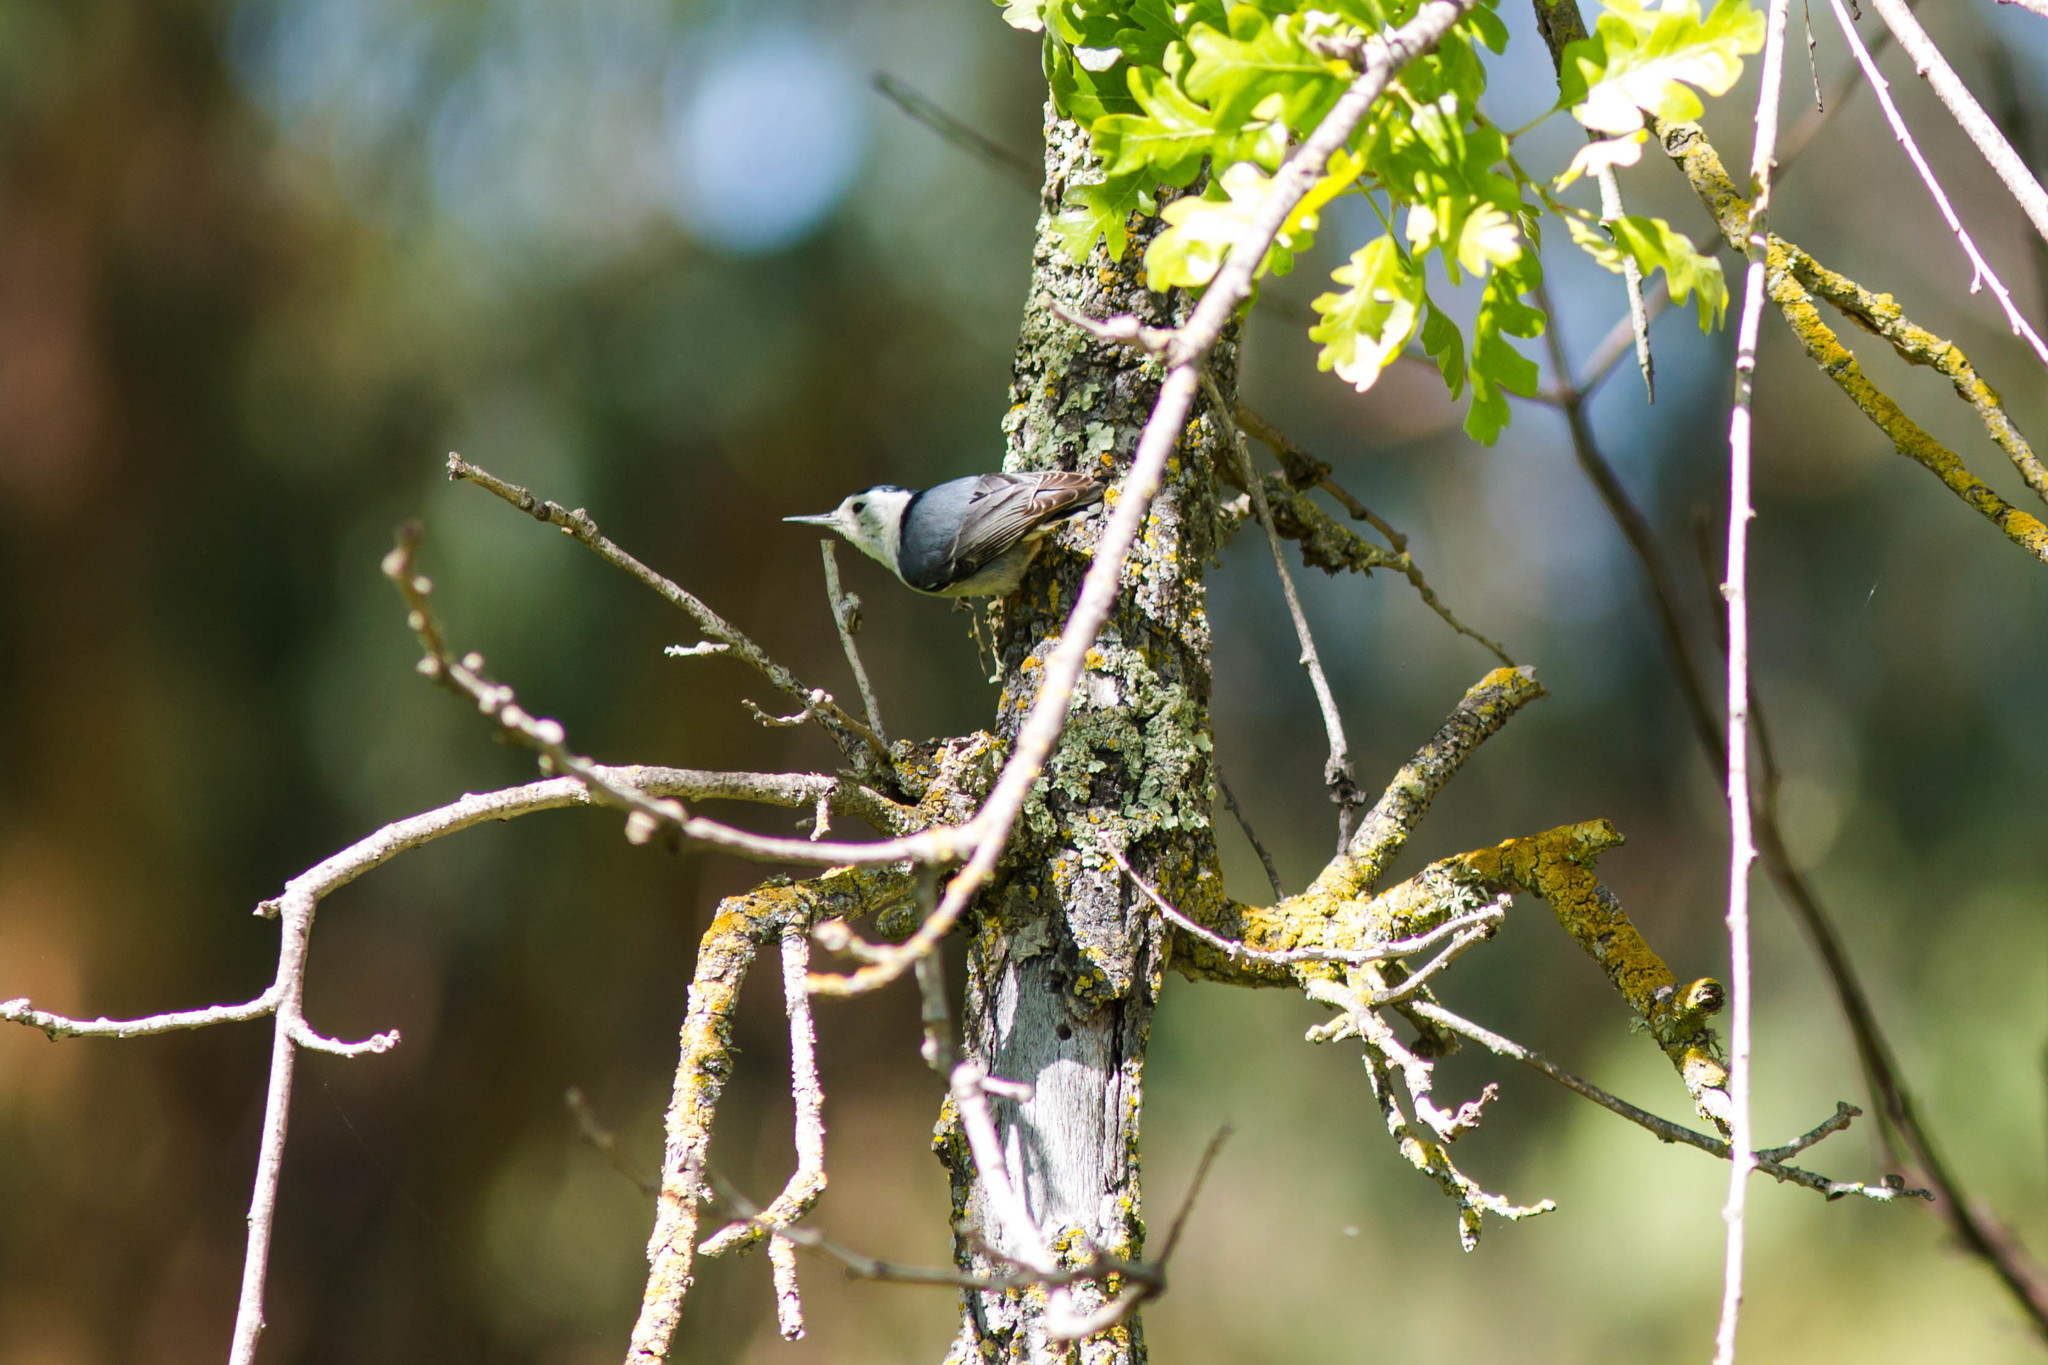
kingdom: Animalia
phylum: Chordata
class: Aves
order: Passeriformes
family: Sittidae
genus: Sitta
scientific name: Sitta carolinensis
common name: White-breasted nuthatch
